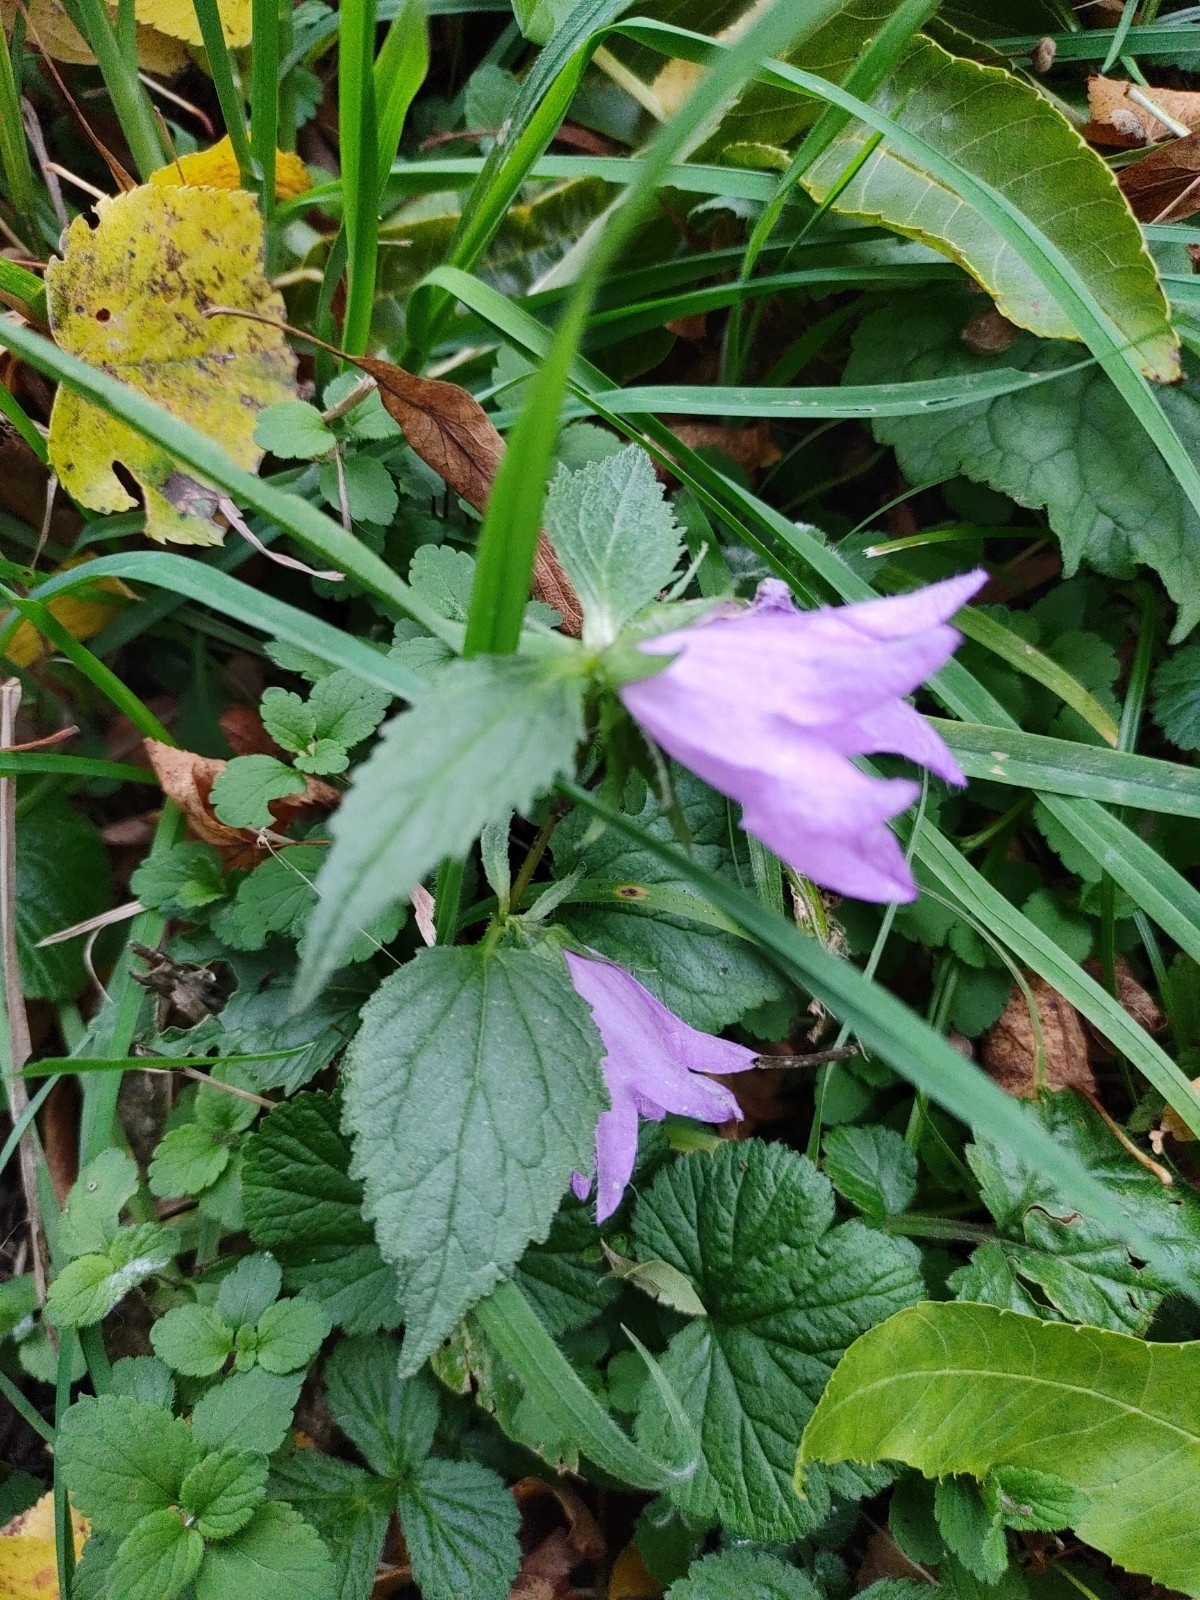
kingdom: Plantae
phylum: Tracheophyta
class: Magnoliopsida
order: Asterales
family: Campanulaceae
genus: Campanula
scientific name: Campanula trachelium
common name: Nettle-leaved bellflower
